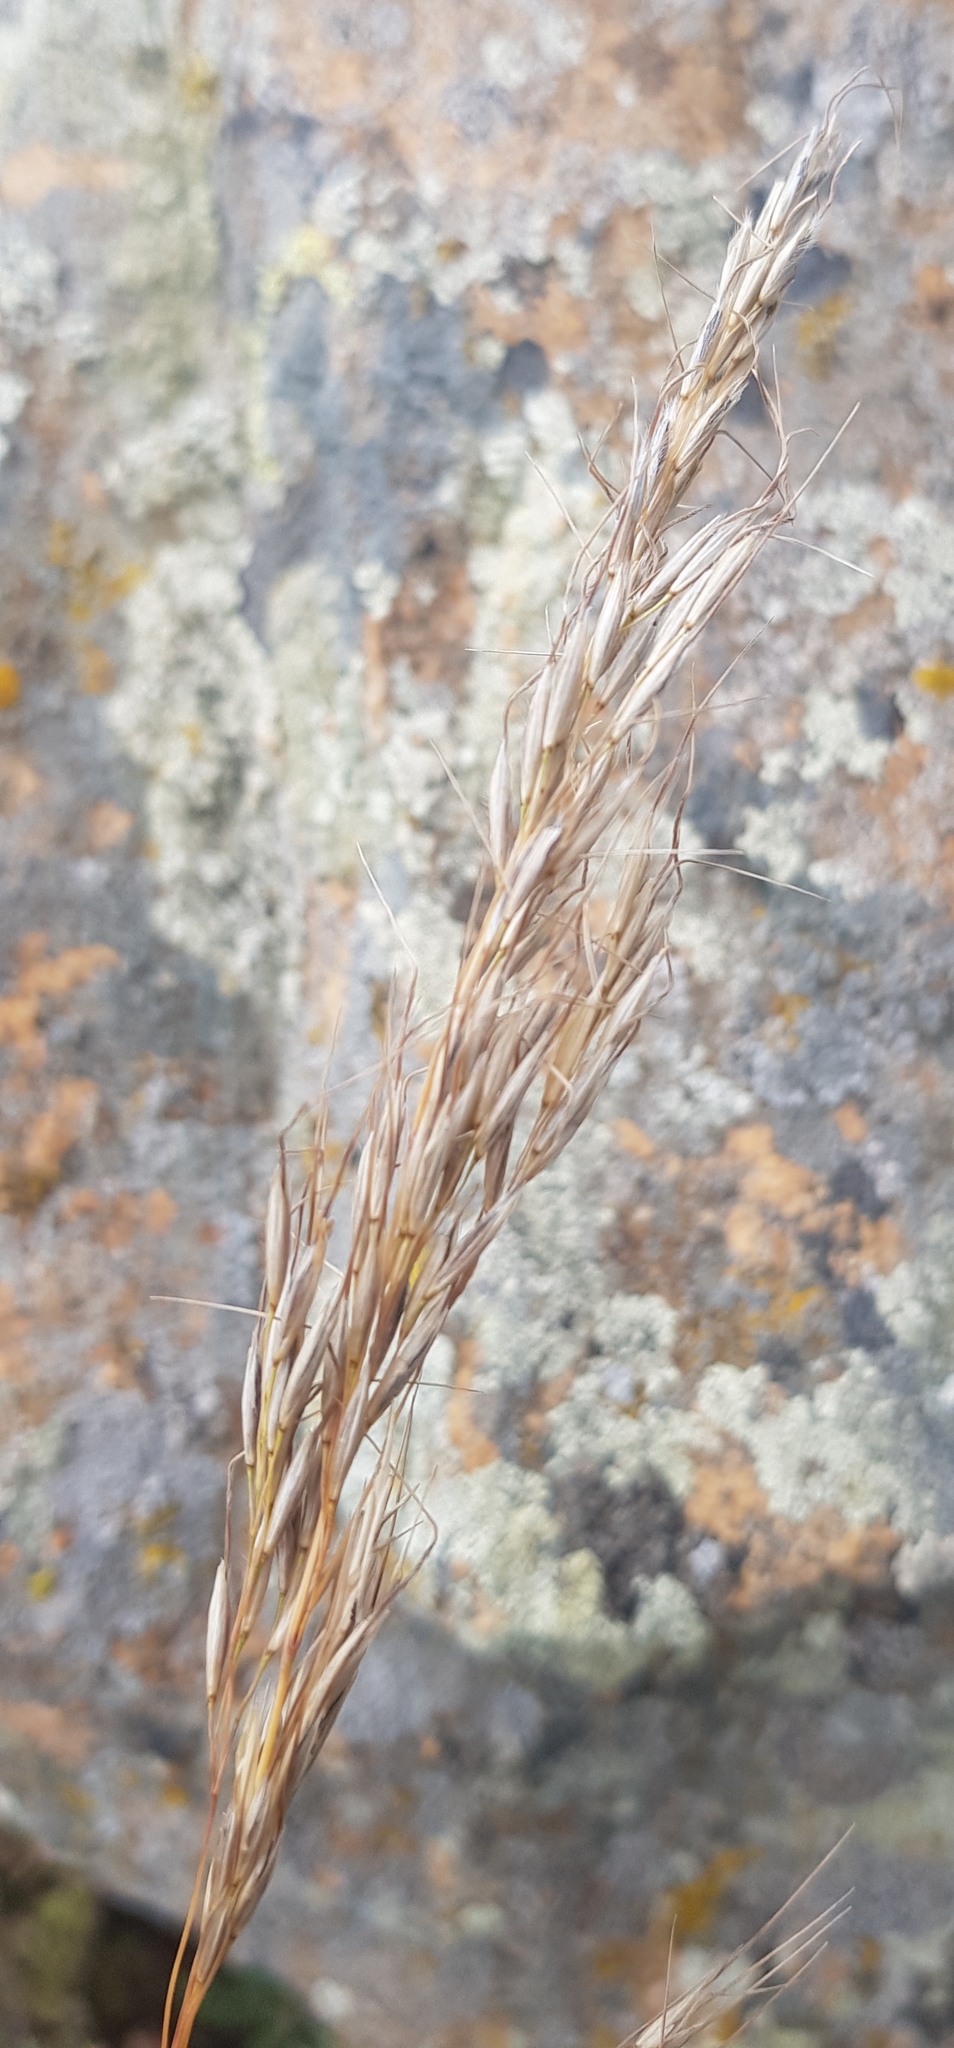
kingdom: Plantae
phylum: Tracheophyta
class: Liliopsida
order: Poales
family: Poaceae
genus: Achnatherum
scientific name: Achnatherum sibiricum
